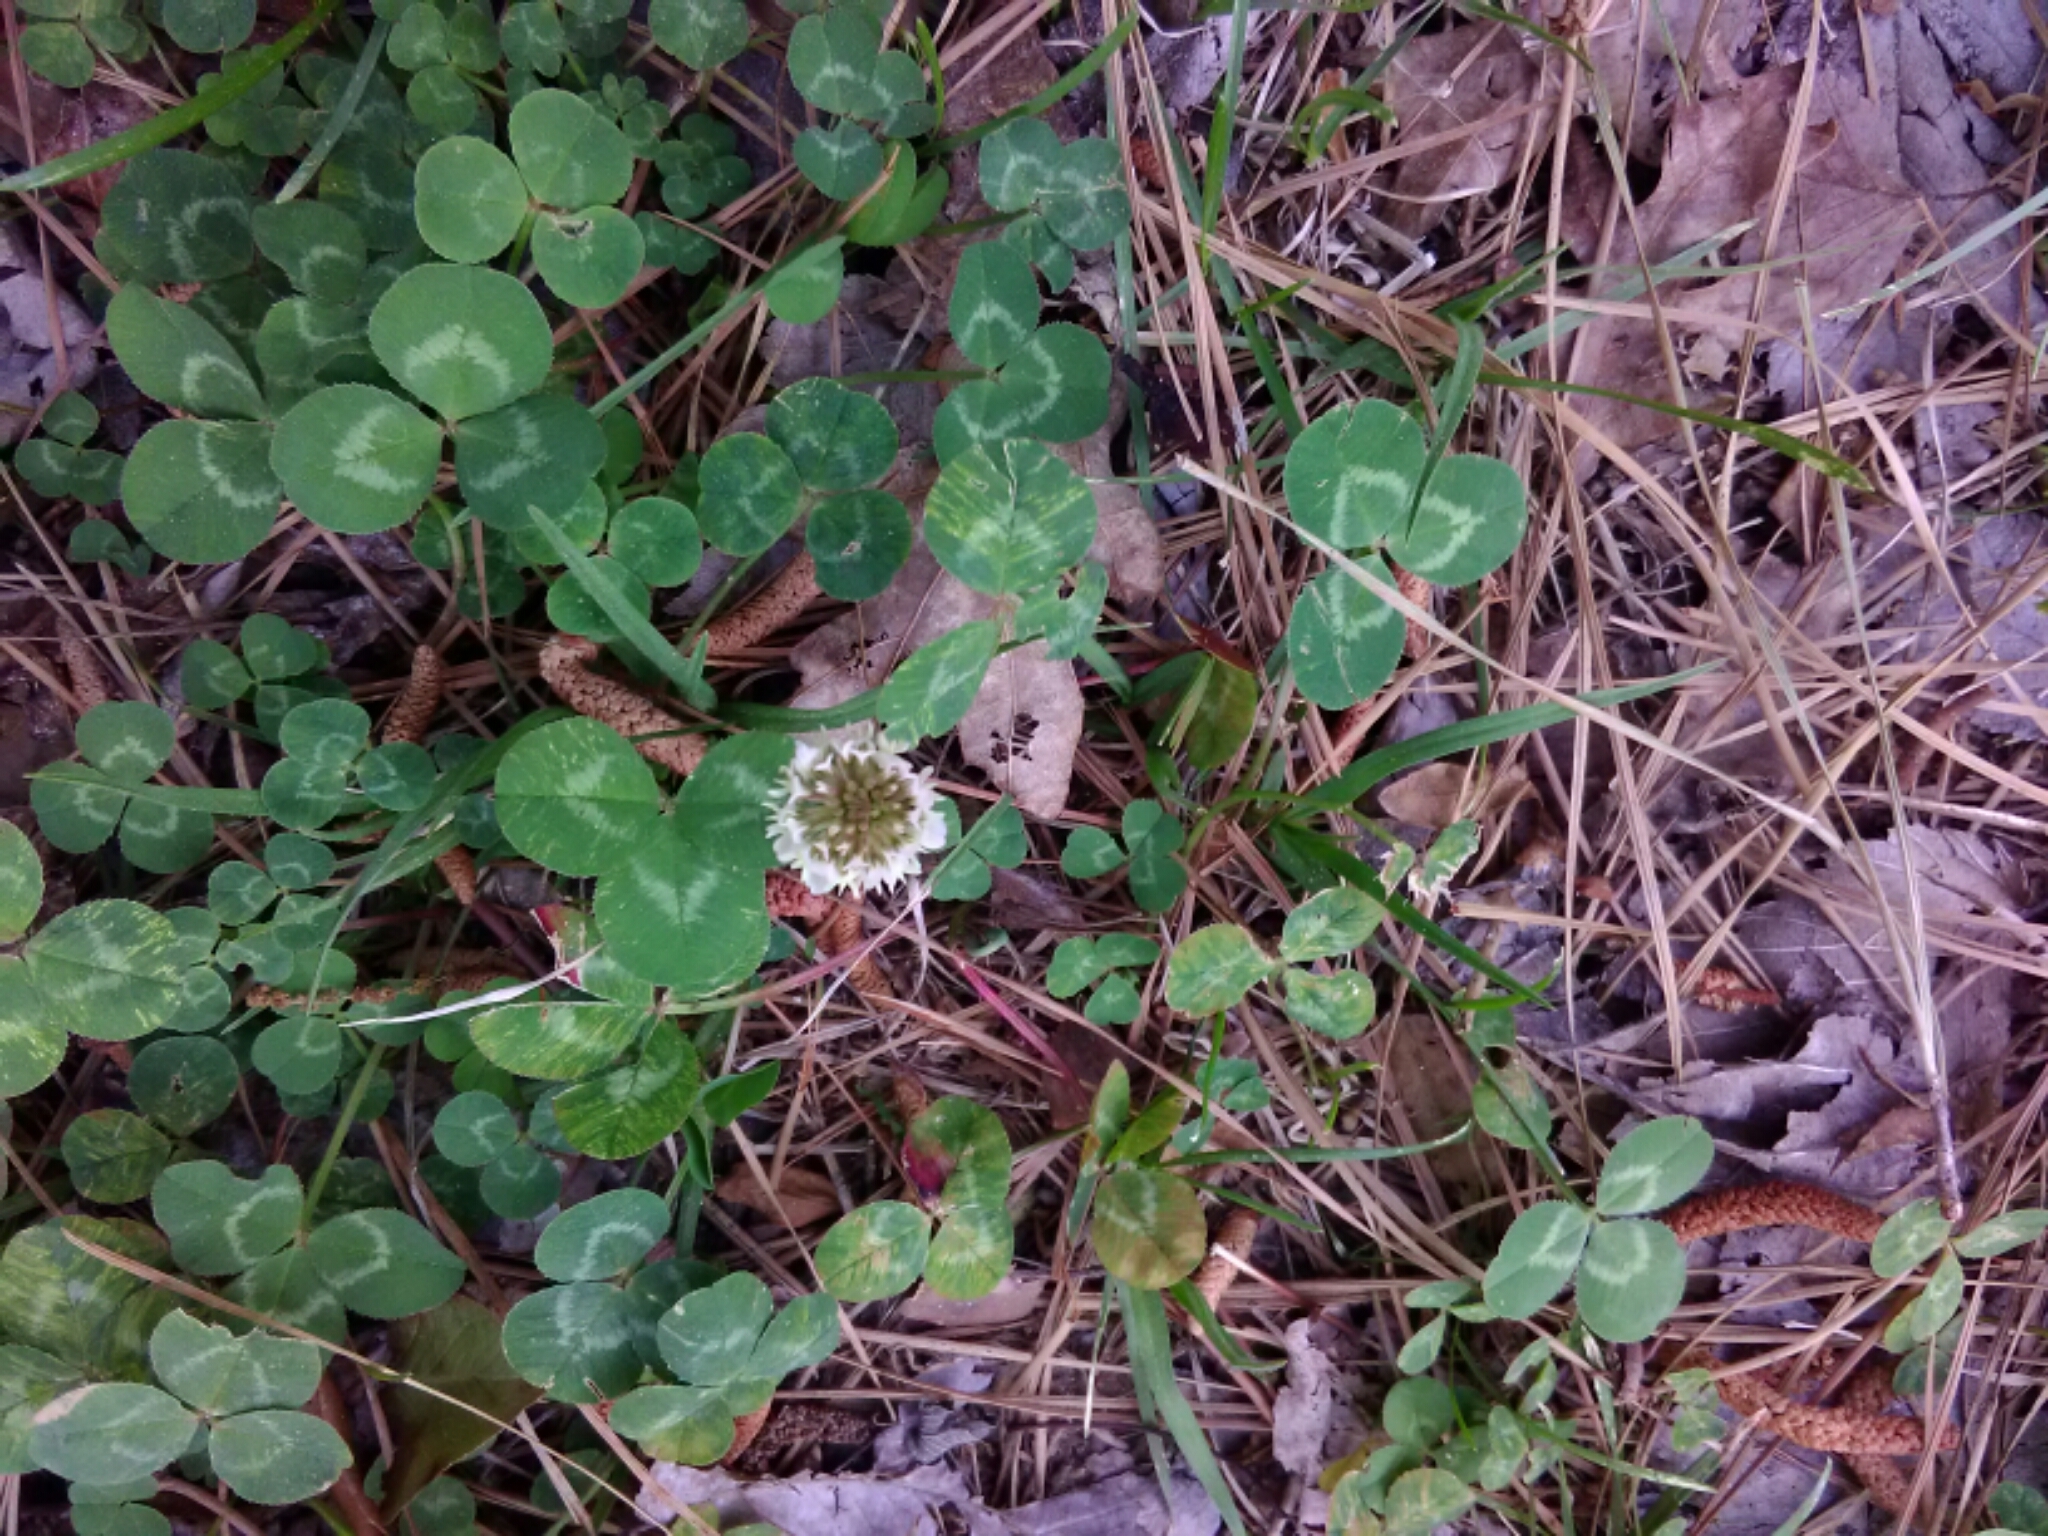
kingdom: Plantae
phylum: Tracheophyta
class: Magnoliopsida
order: Fabales
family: Fabaceae
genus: Trifolium
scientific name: Trifolium repens
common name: White clover
